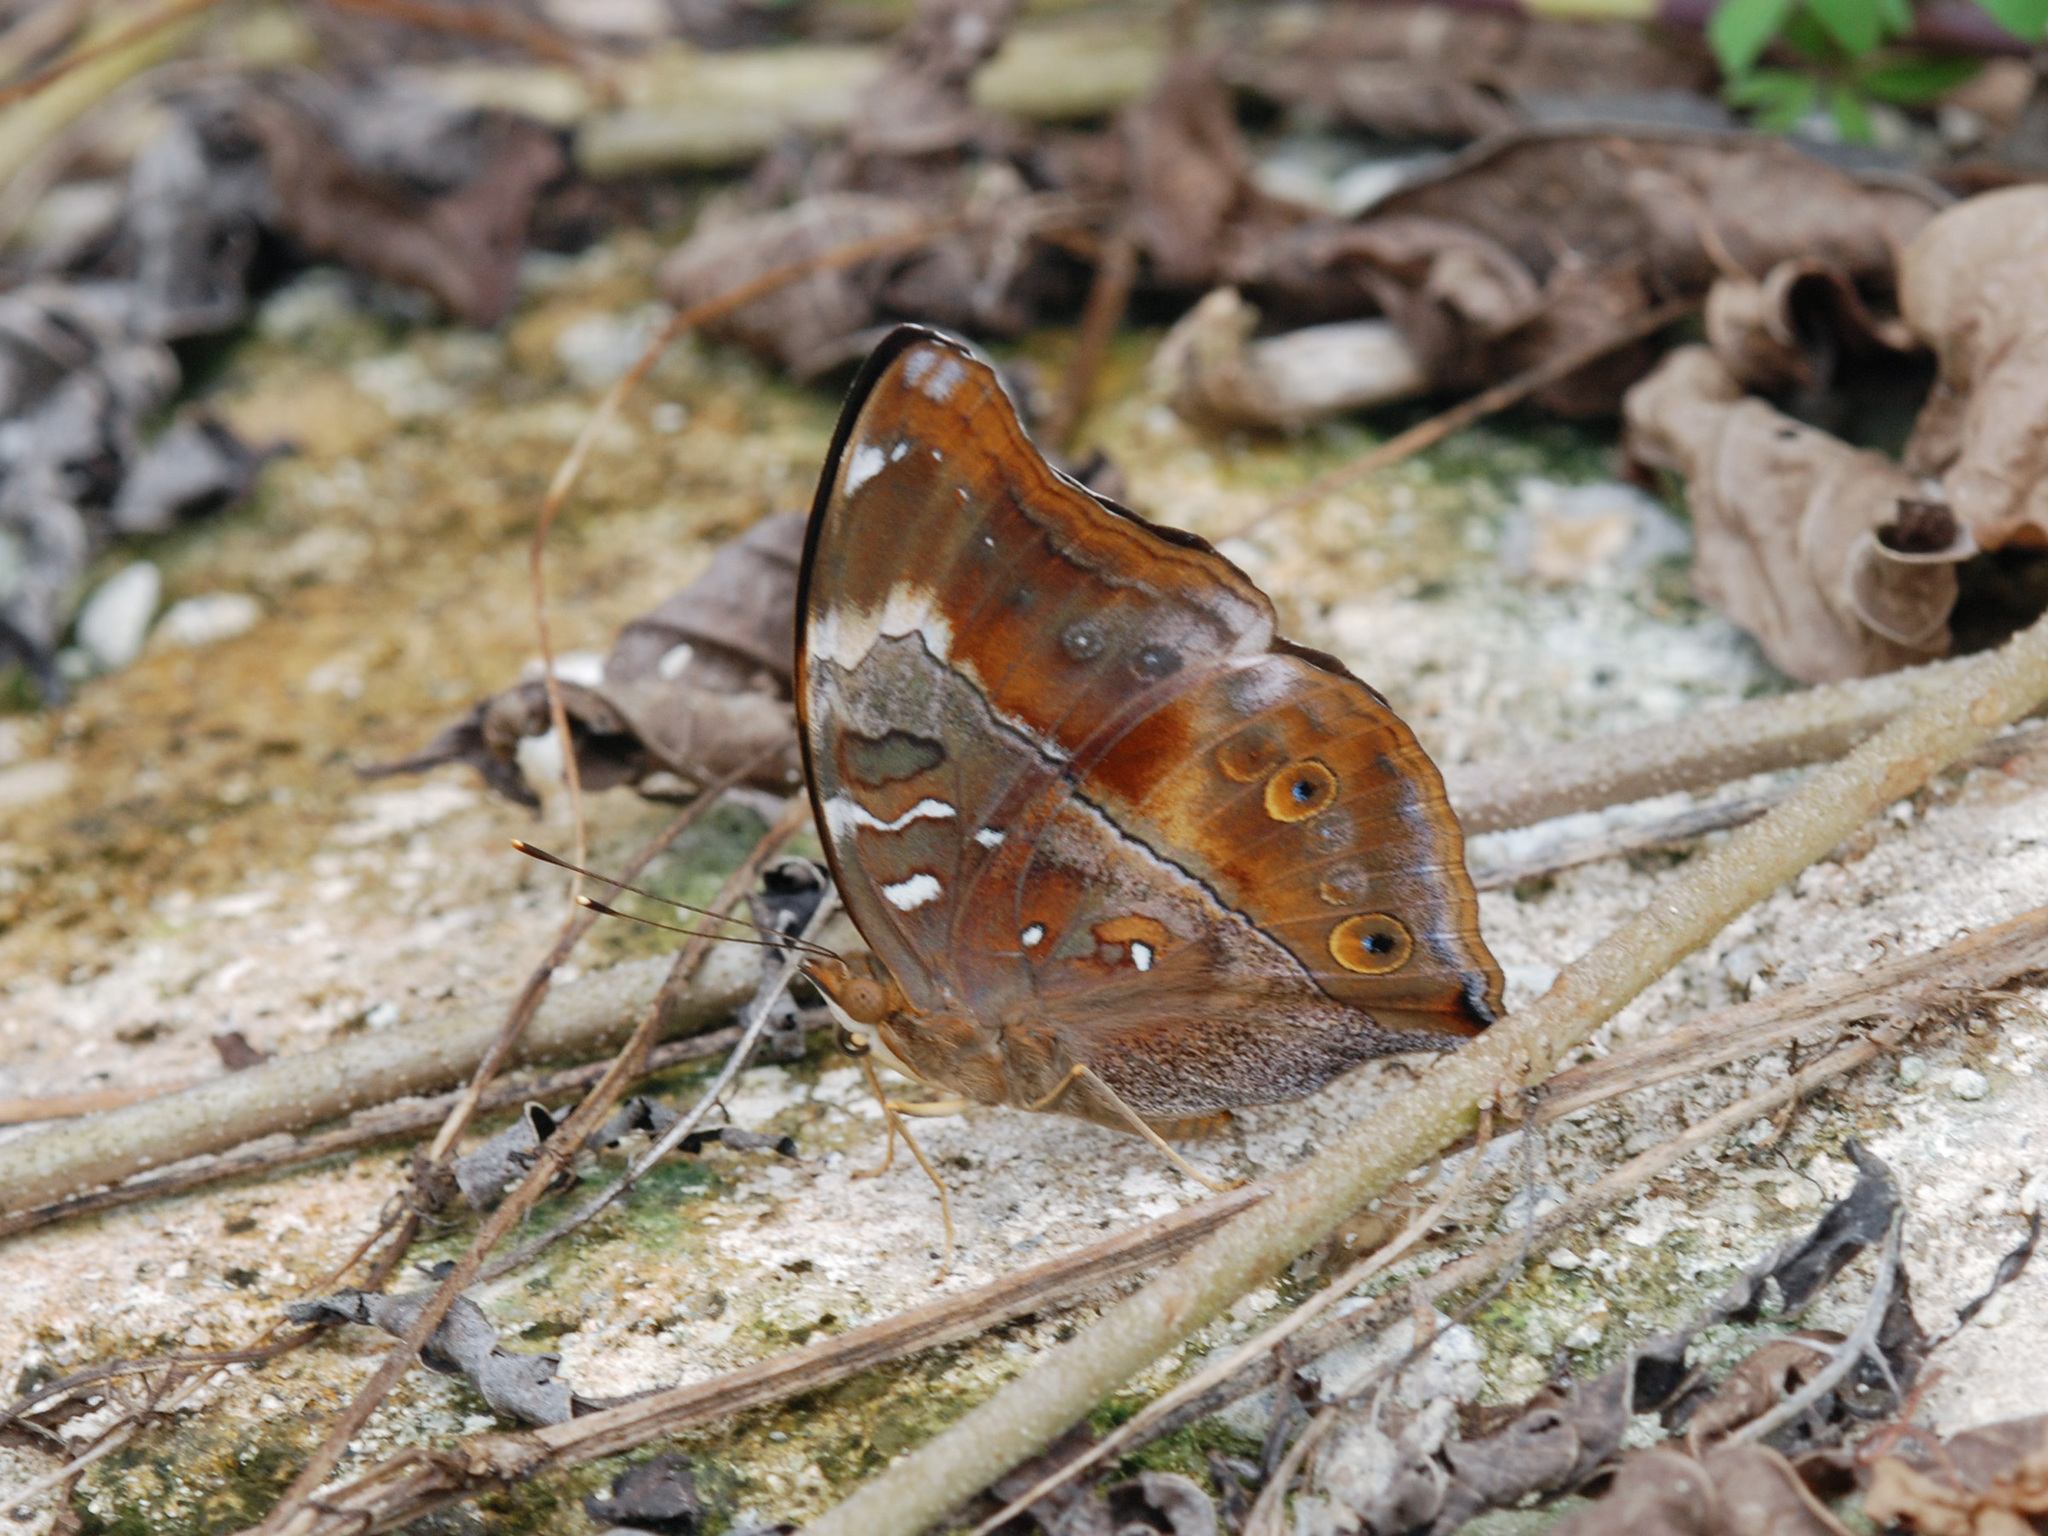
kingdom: Animalia
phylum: Arthropoda
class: Insecta
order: Lepidoptera
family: Nymphalidae
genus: Doleschallia
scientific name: Doleschallia bisaltide
